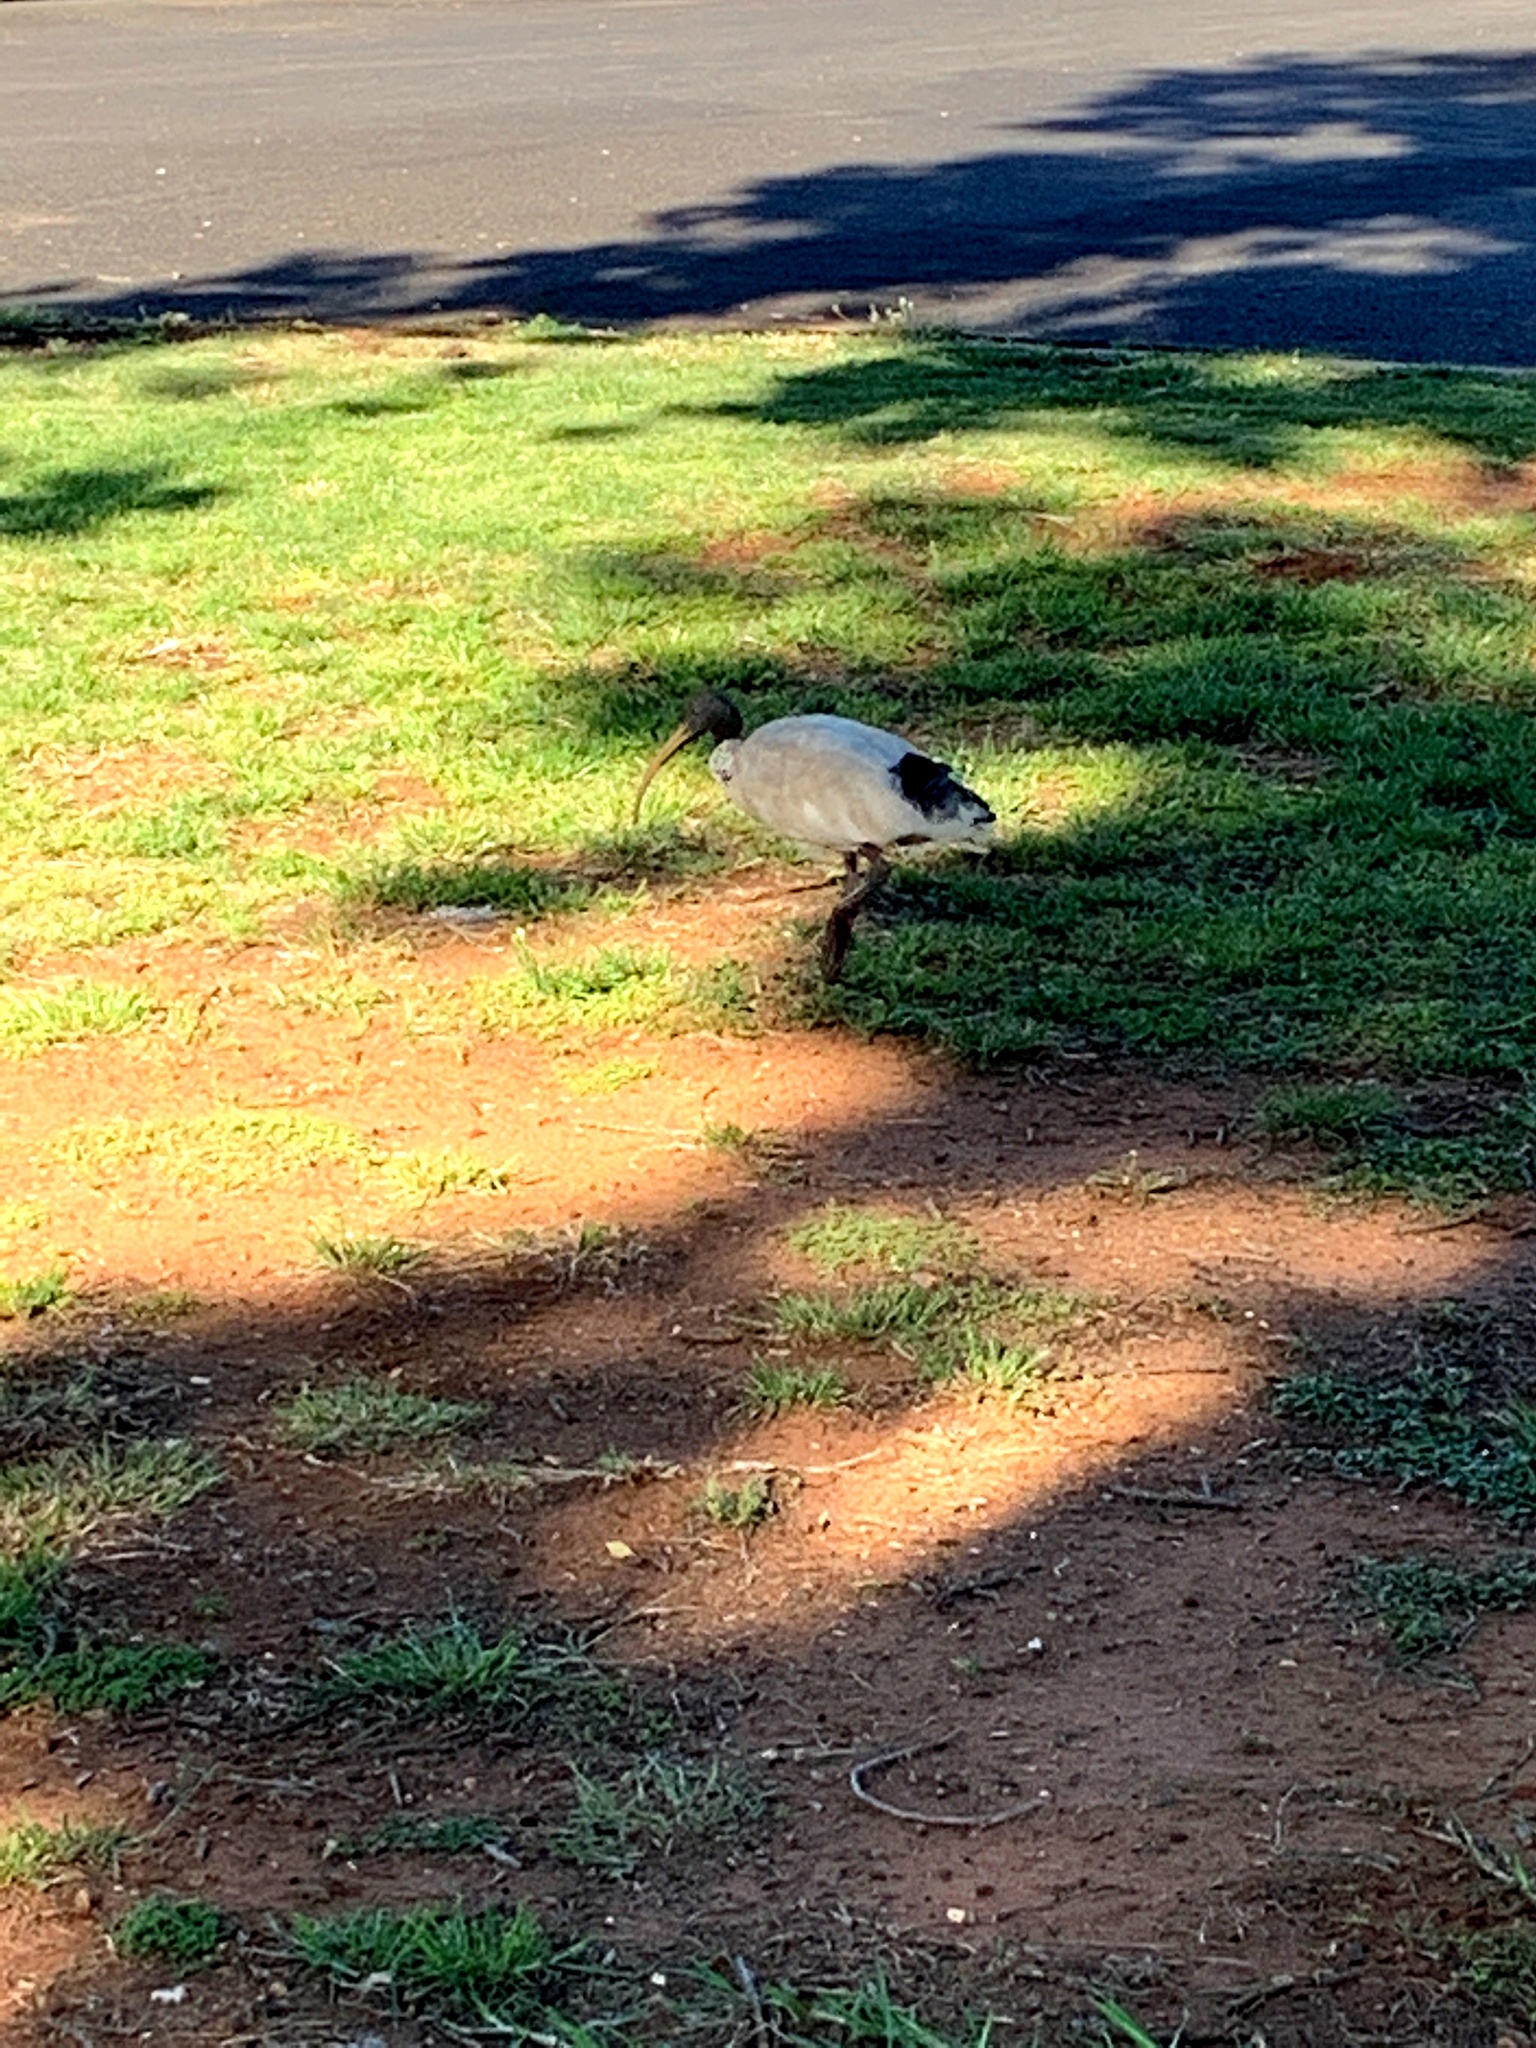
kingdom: Animalia
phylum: Chordata
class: Aves
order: Pelecaniformes
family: Threskiornithidae
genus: Threskiornis
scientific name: Threskiornis molucca
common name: Australian white ibis
